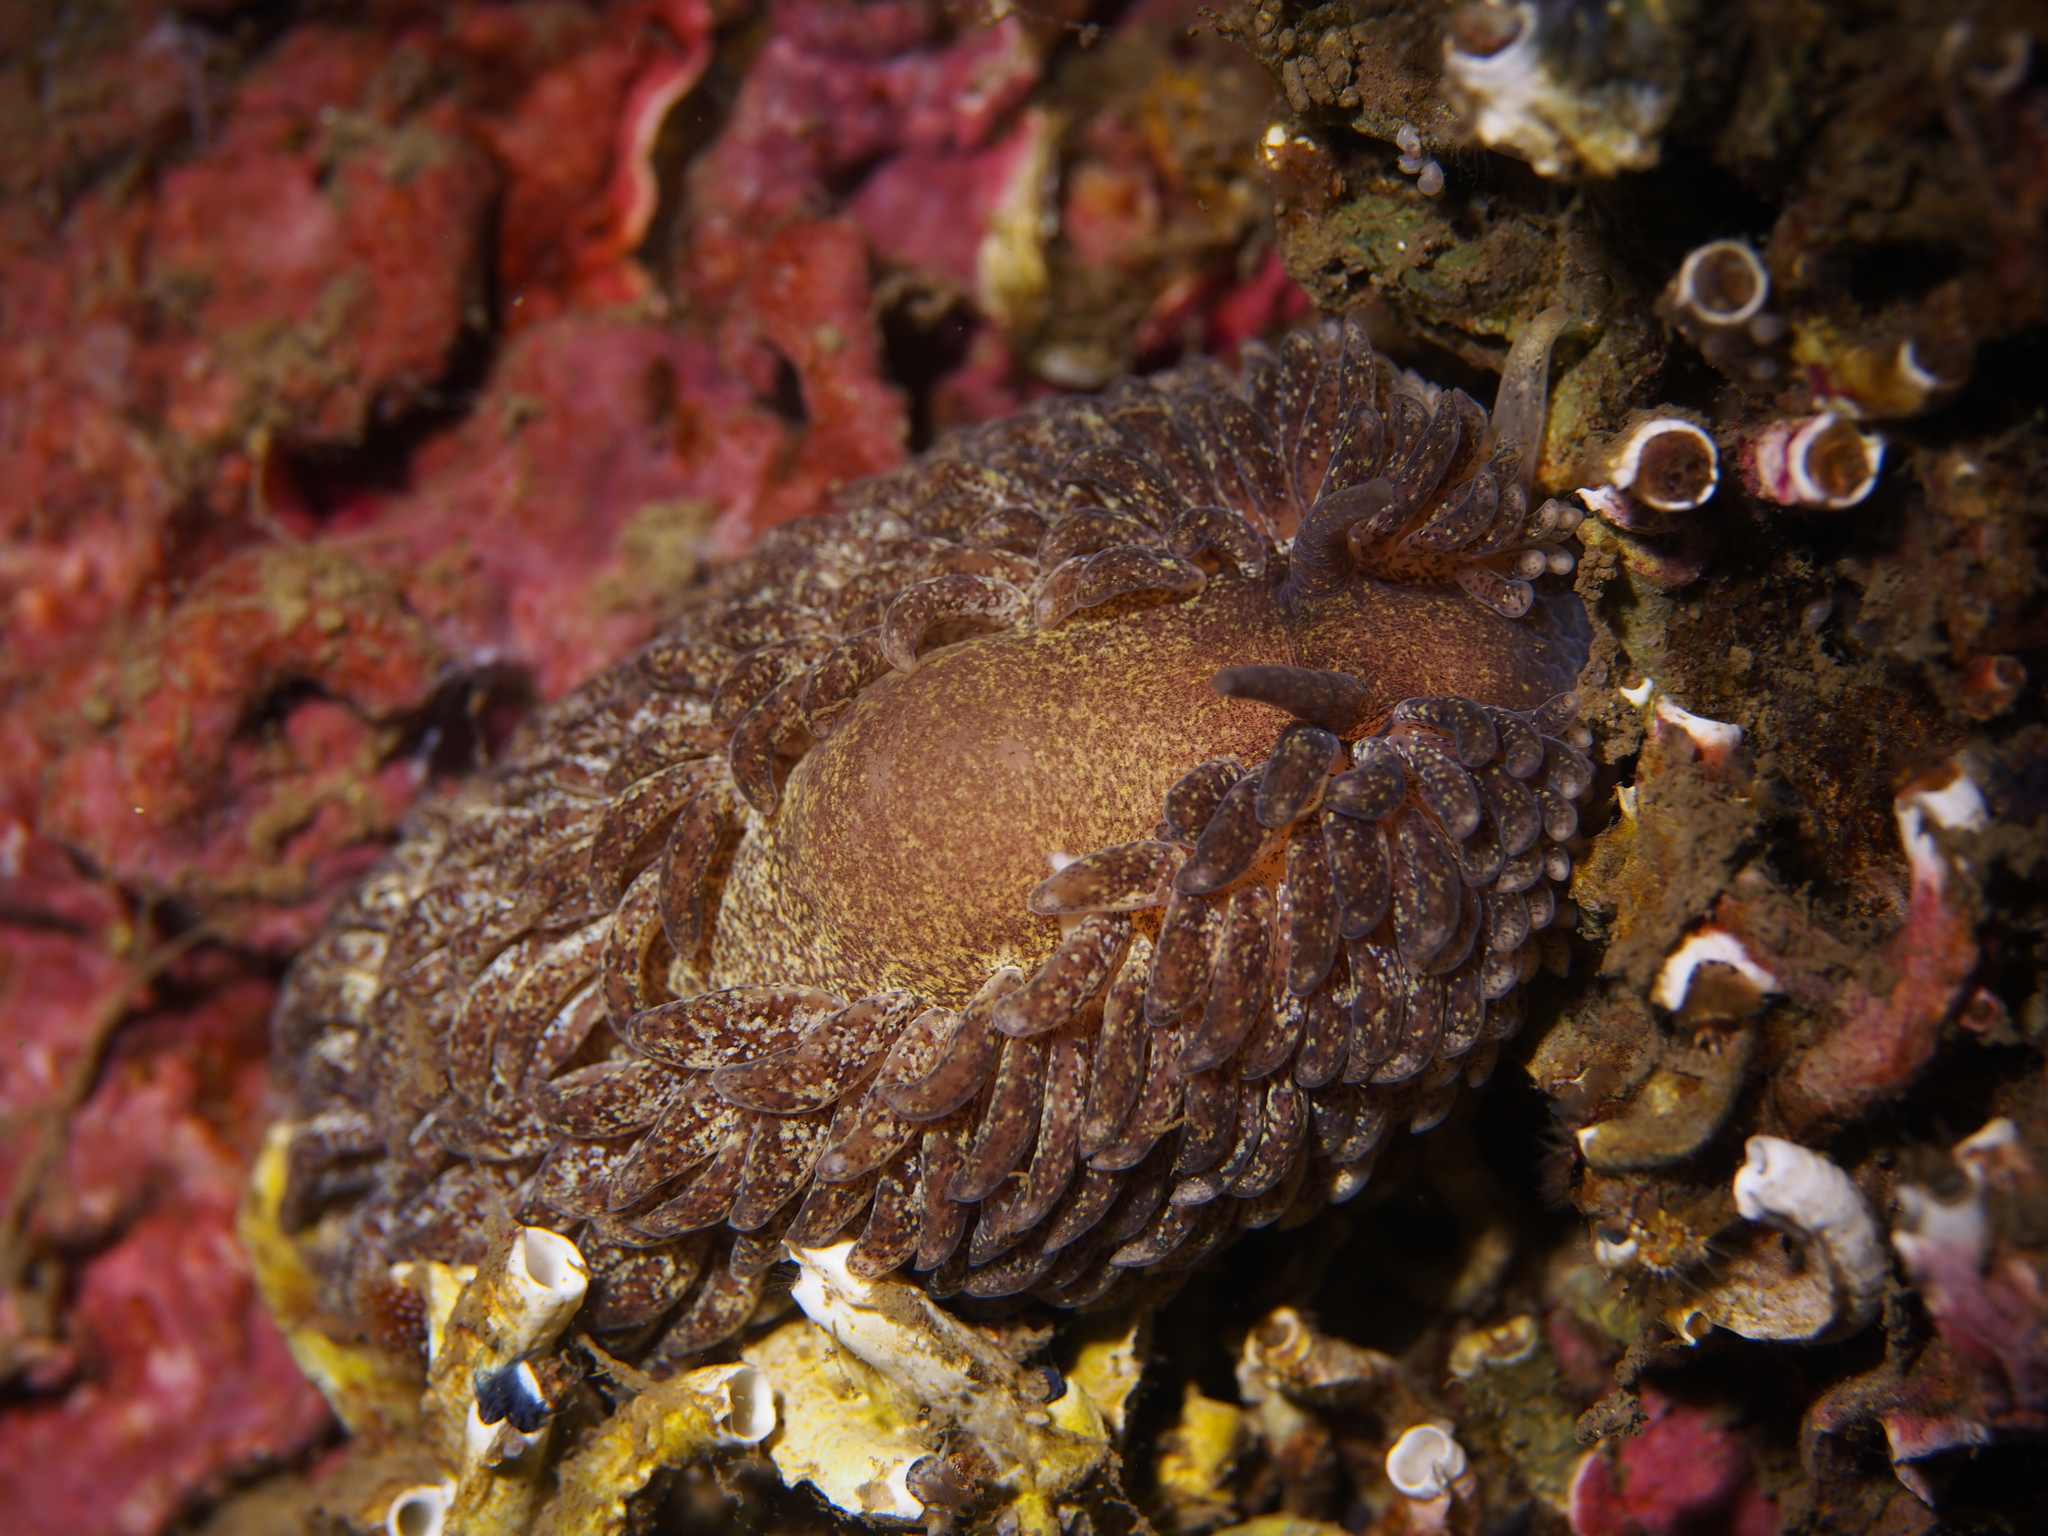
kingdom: Animalia
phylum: Mollusca
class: Gastropoda
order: Nudibranchia
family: Aeolidiidae
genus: Aeolidia
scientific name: Aeolidia papillosa
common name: Common grey sea slug
